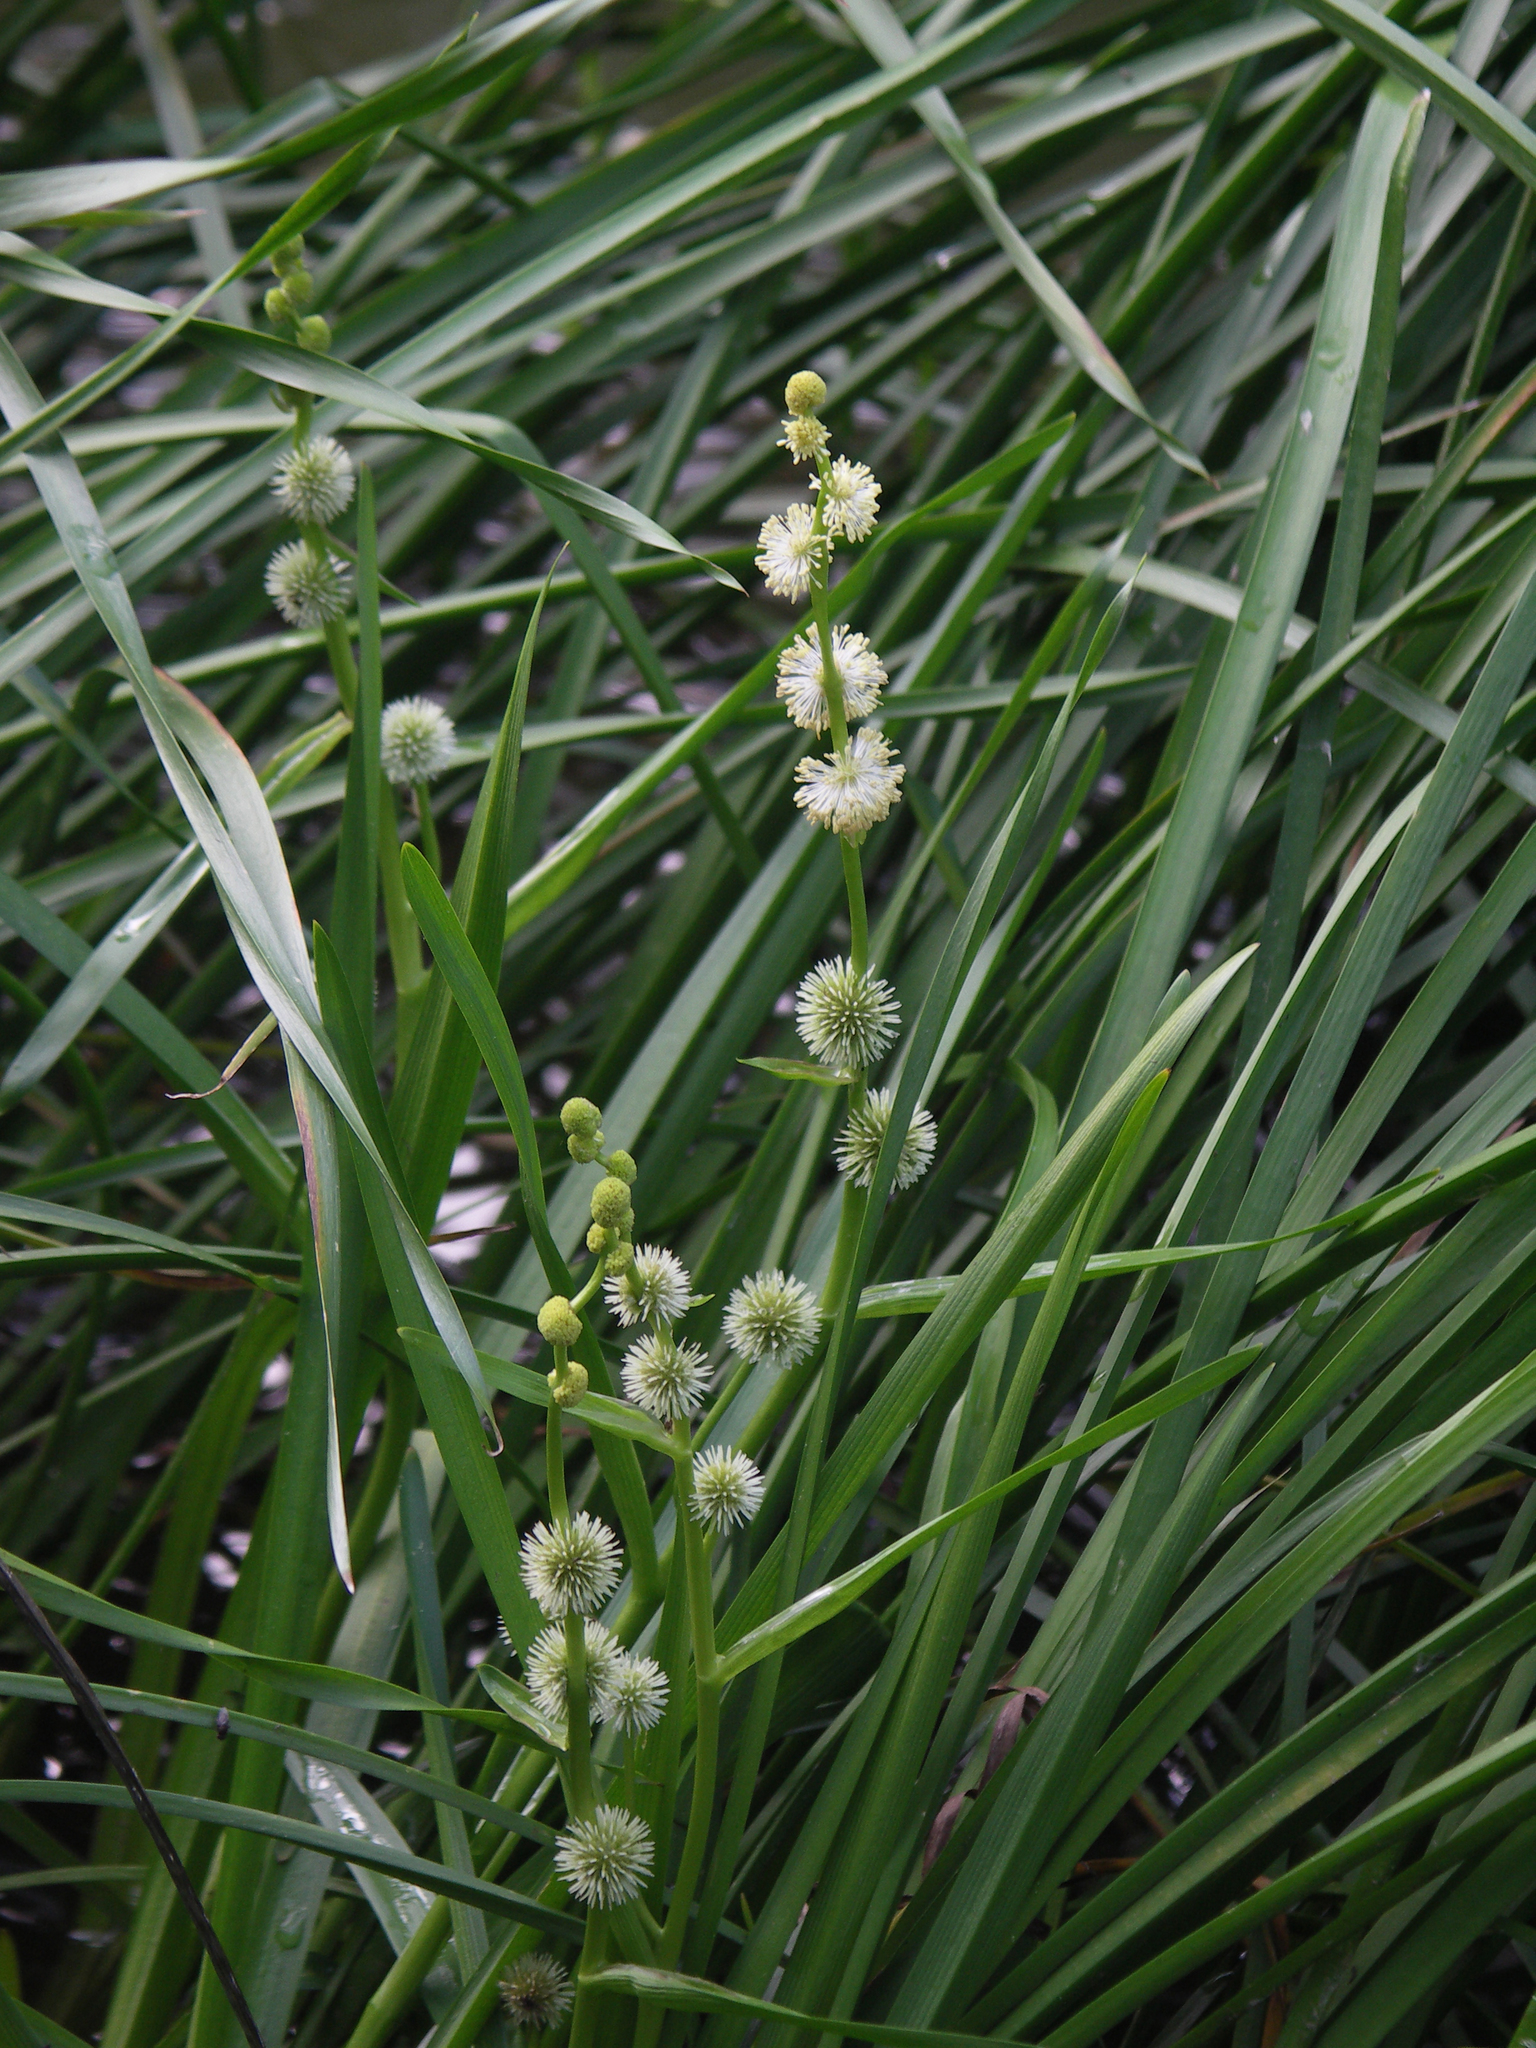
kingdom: Plantae
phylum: Tracheophyta
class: Liliopsida
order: Poales
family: Typhaceae
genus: Sparganium
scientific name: Sparganium emersum
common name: Unbranched bur-reed
